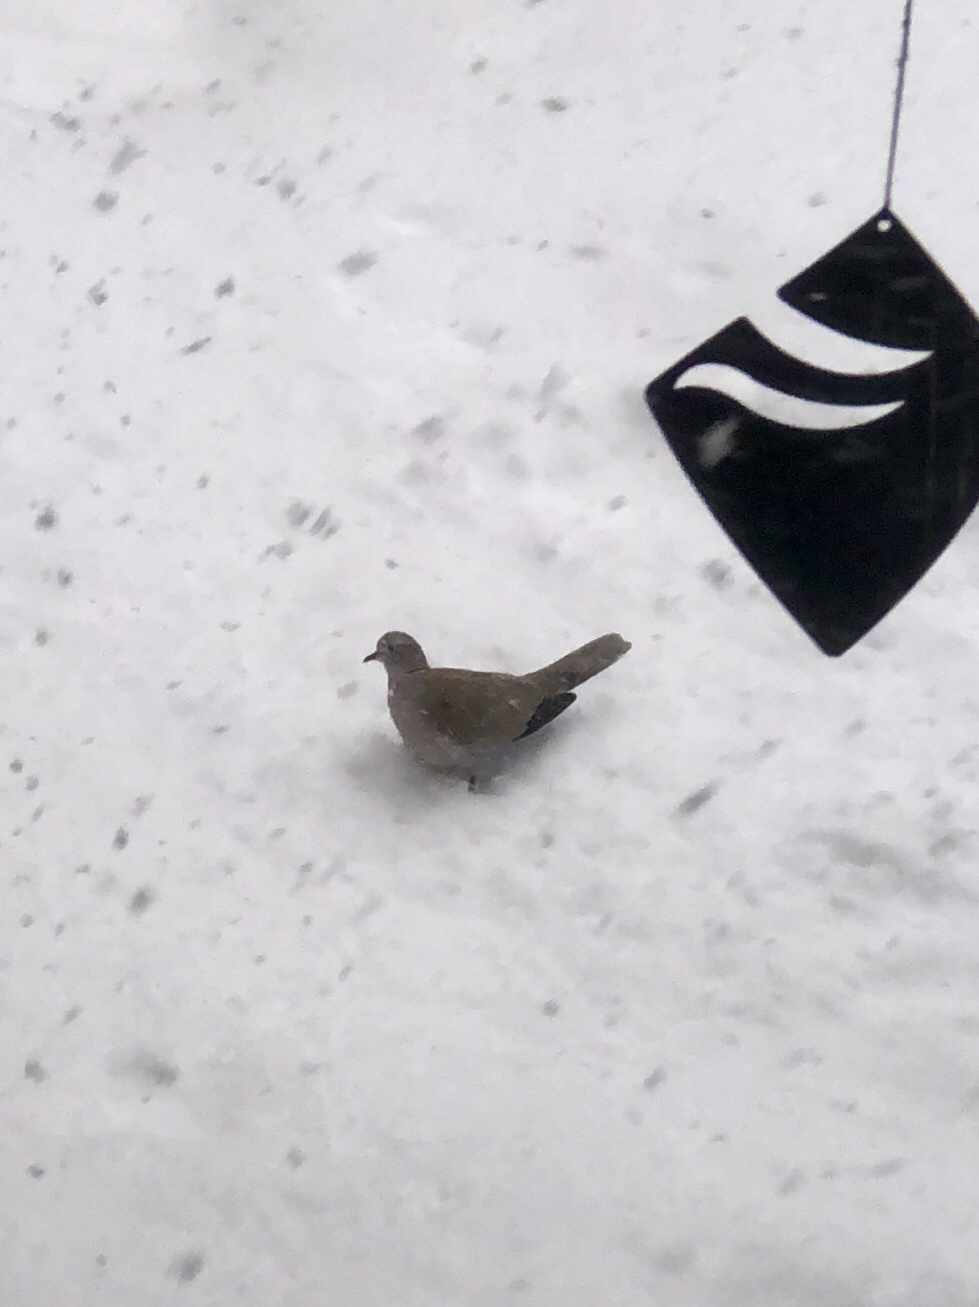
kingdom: Animalia
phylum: Chordata
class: Aves
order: Columbiformes
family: Columbidae
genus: Streptopelia
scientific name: Streptopelia decaocto
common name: Eurasian collared dove
